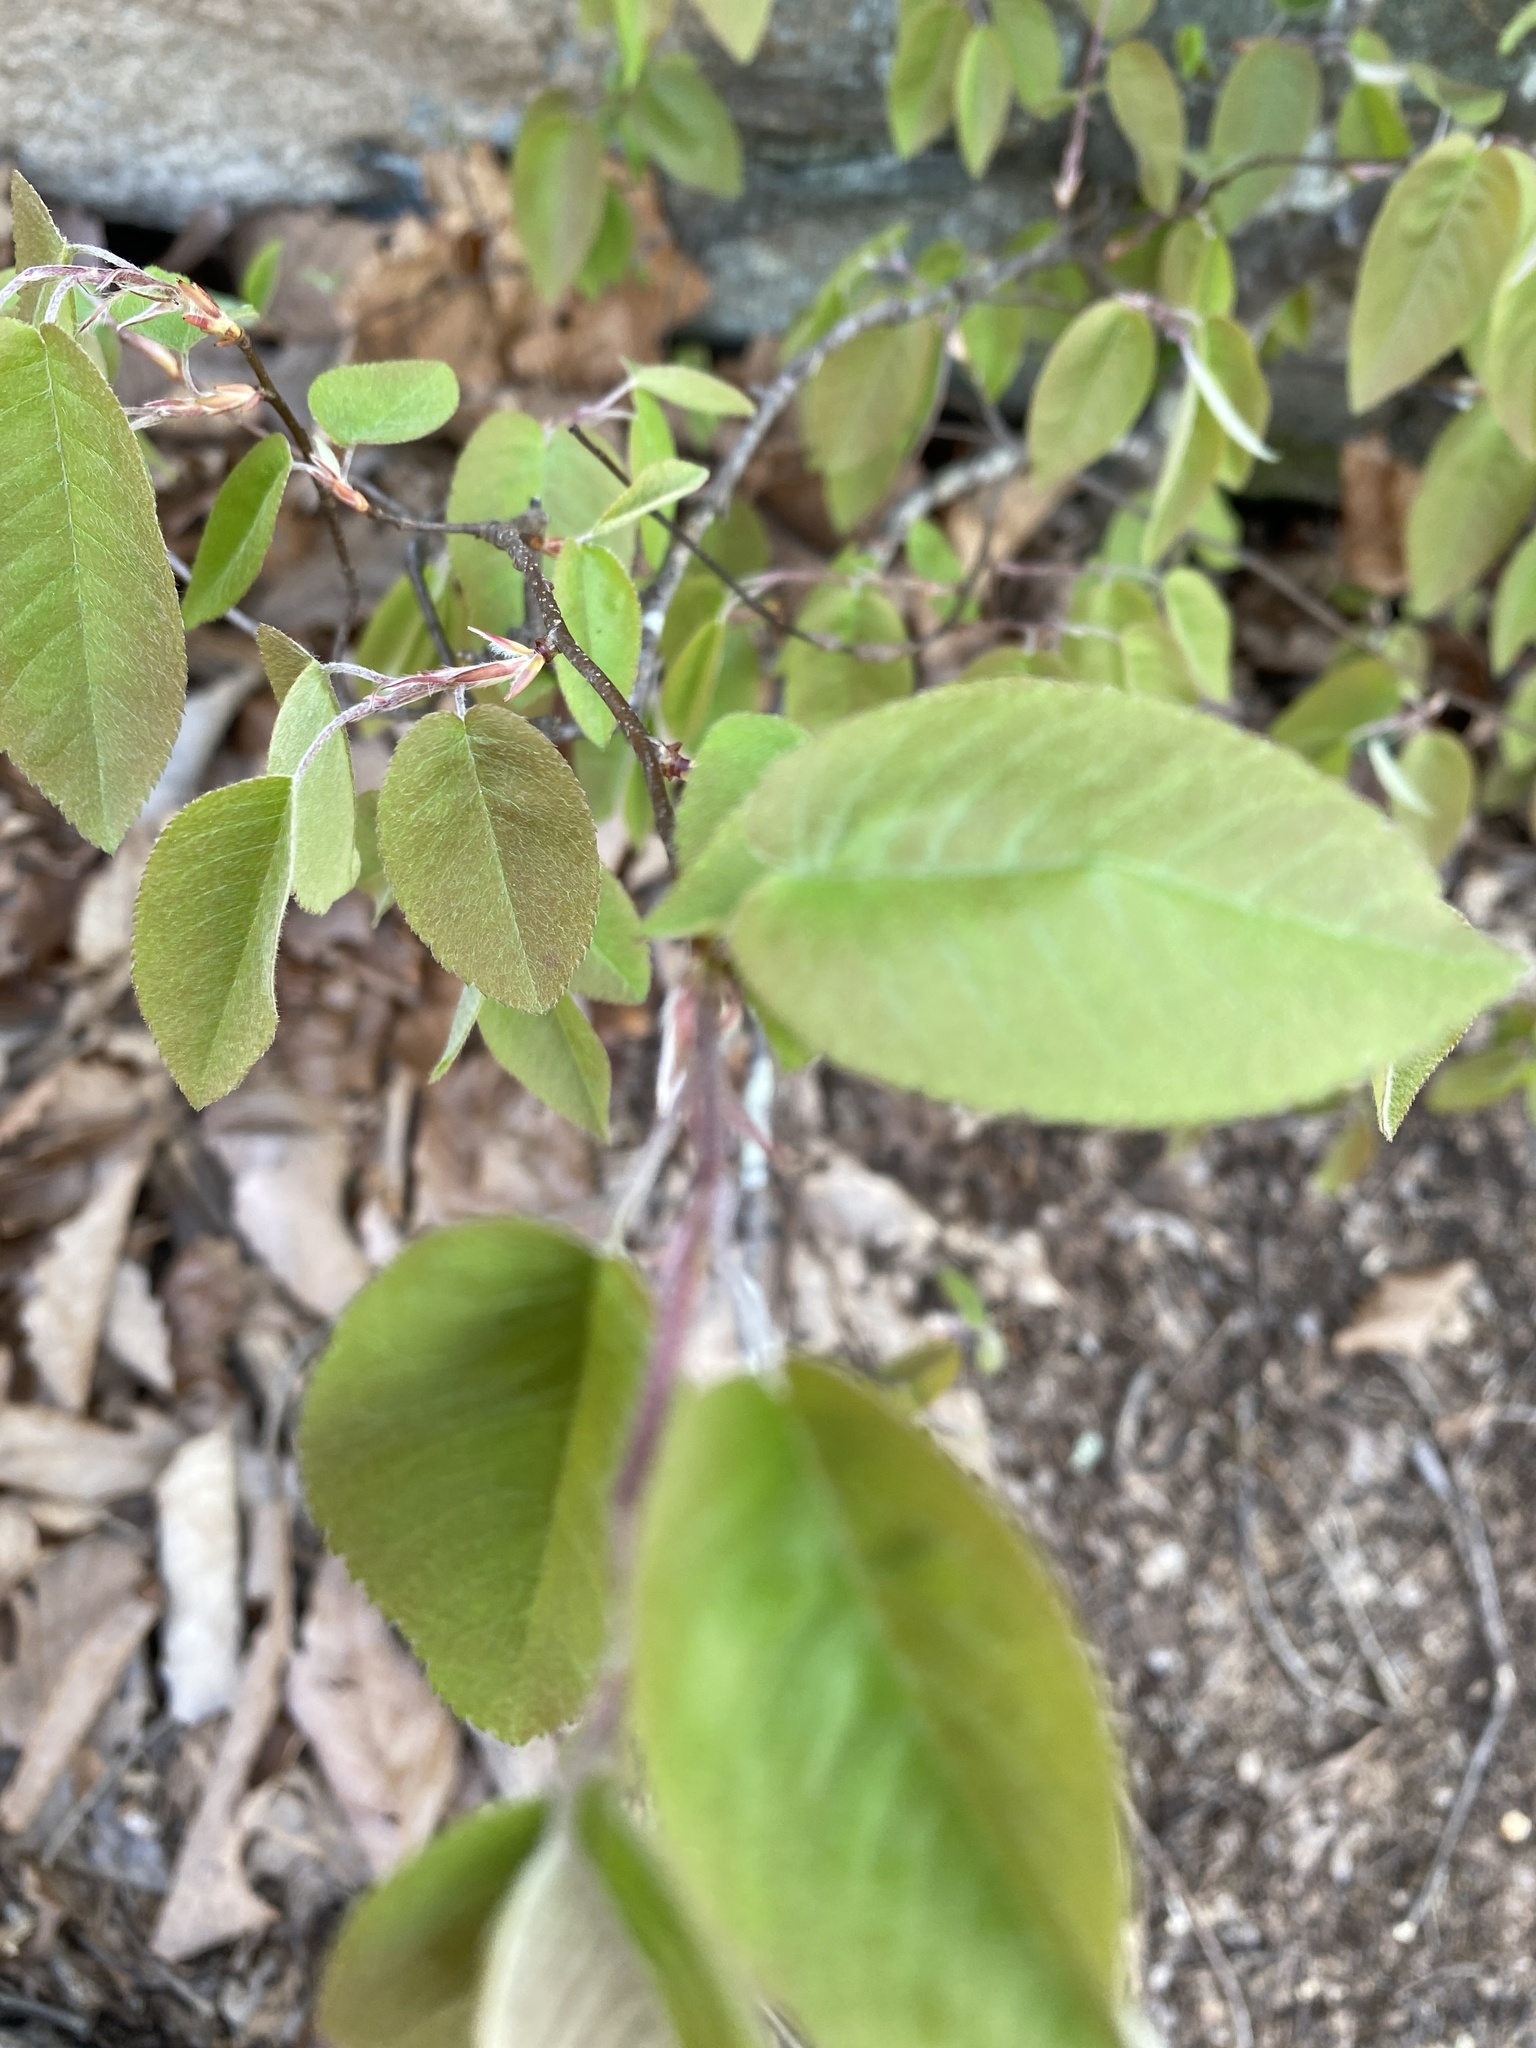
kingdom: Plantae
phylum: Tracheophyta
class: Magnoliopsida
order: Rosales
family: Rosaceae
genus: Amelanchier
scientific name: Amelanchier arborea
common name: Downy serviceberry
